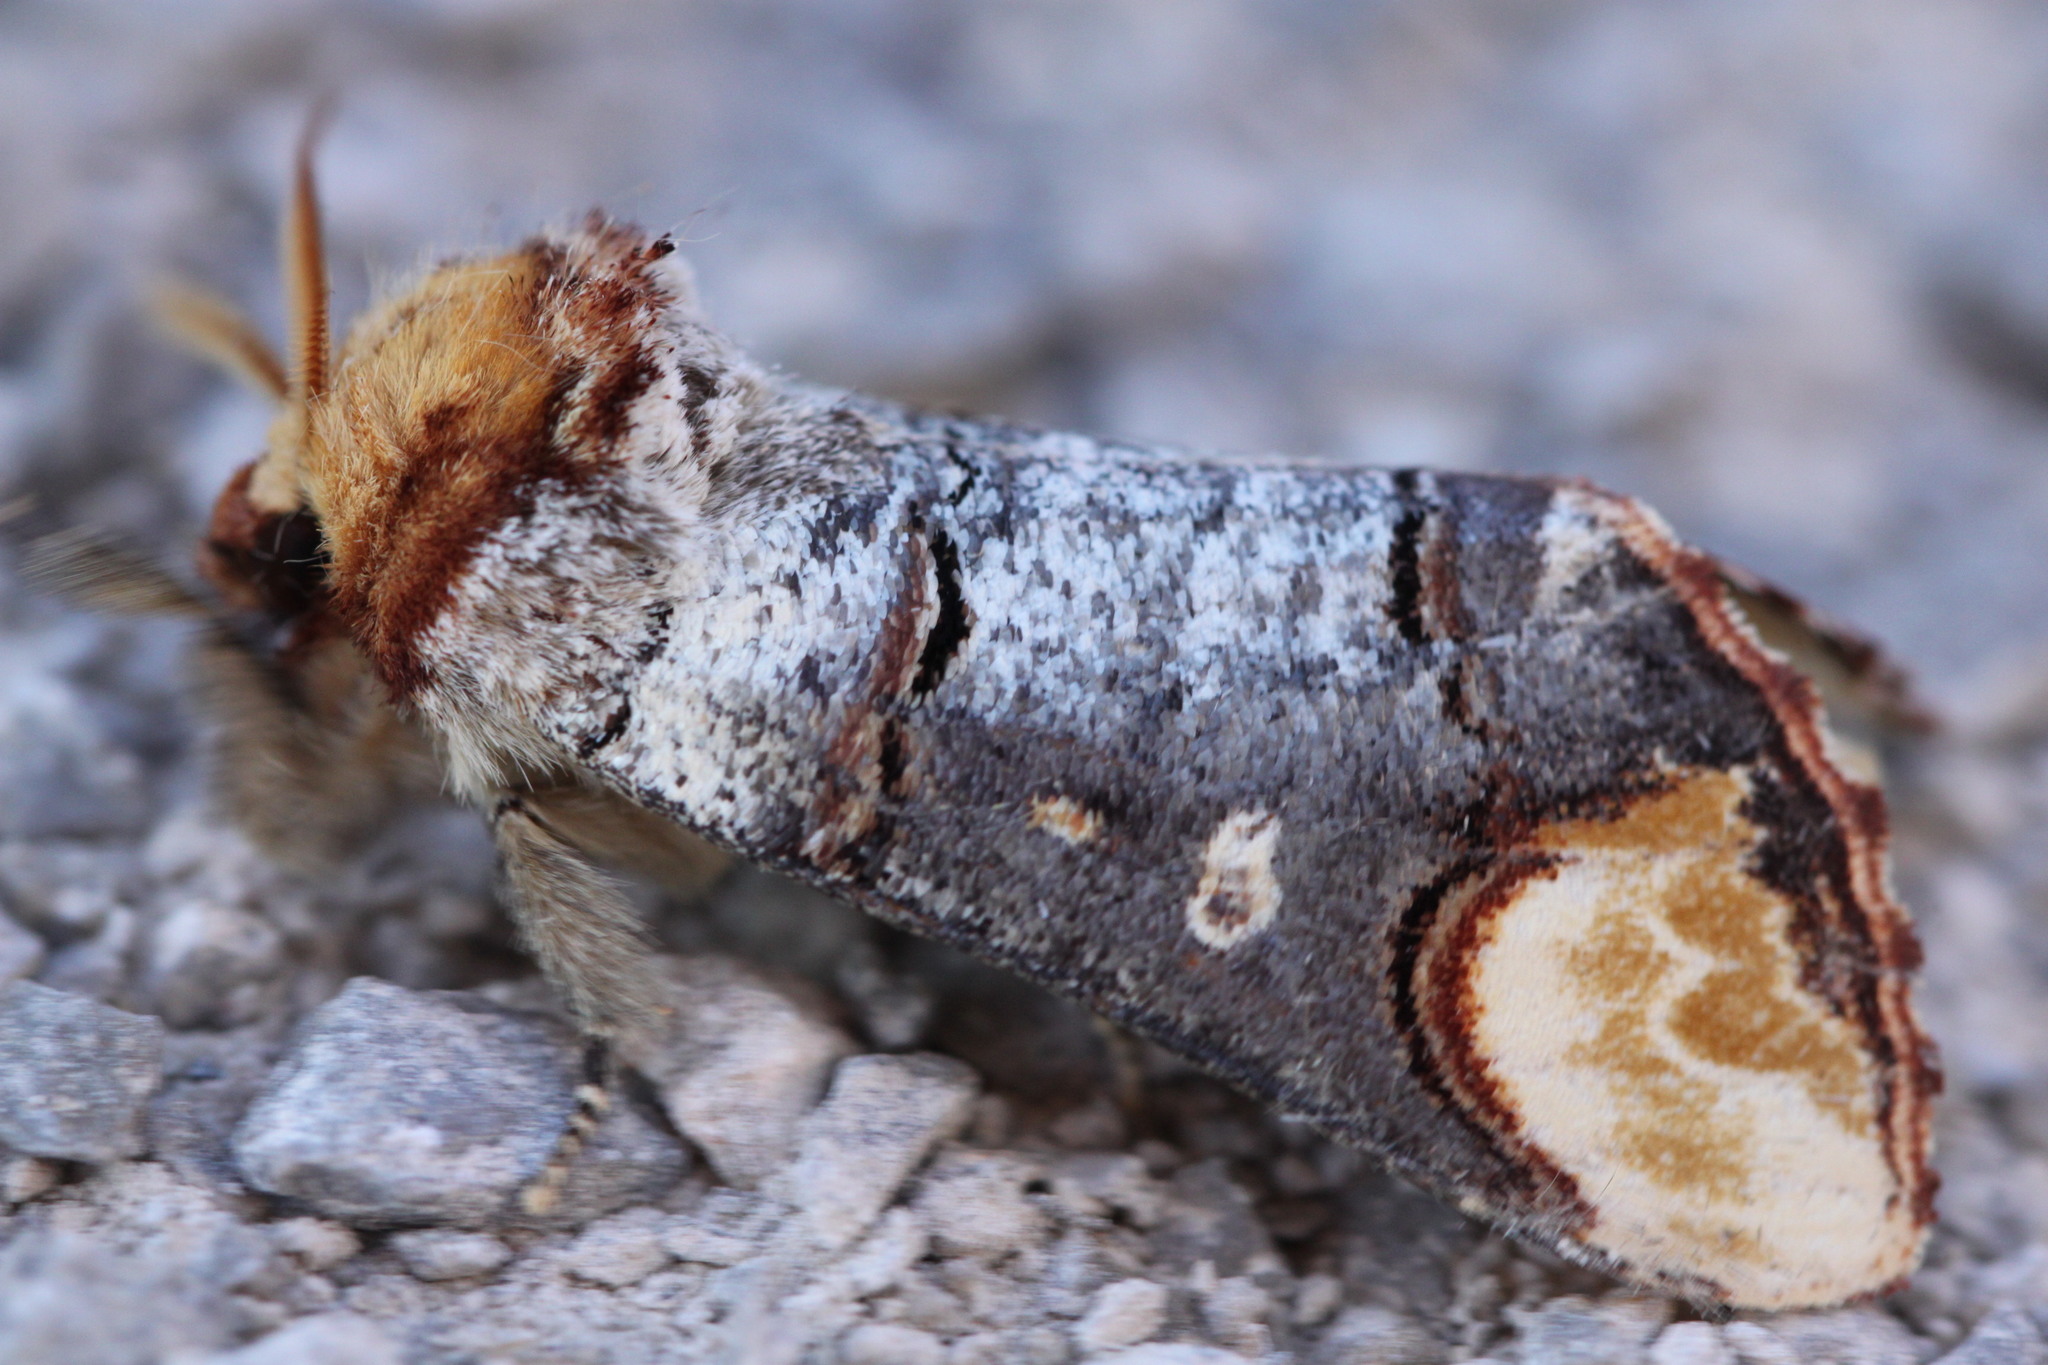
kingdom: Animalia
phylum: Arthropoda
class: Insecta
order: Lepidoptera
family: Notodontidae
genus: Phalera
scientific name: Phalera bucephala
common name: Buff-tip
